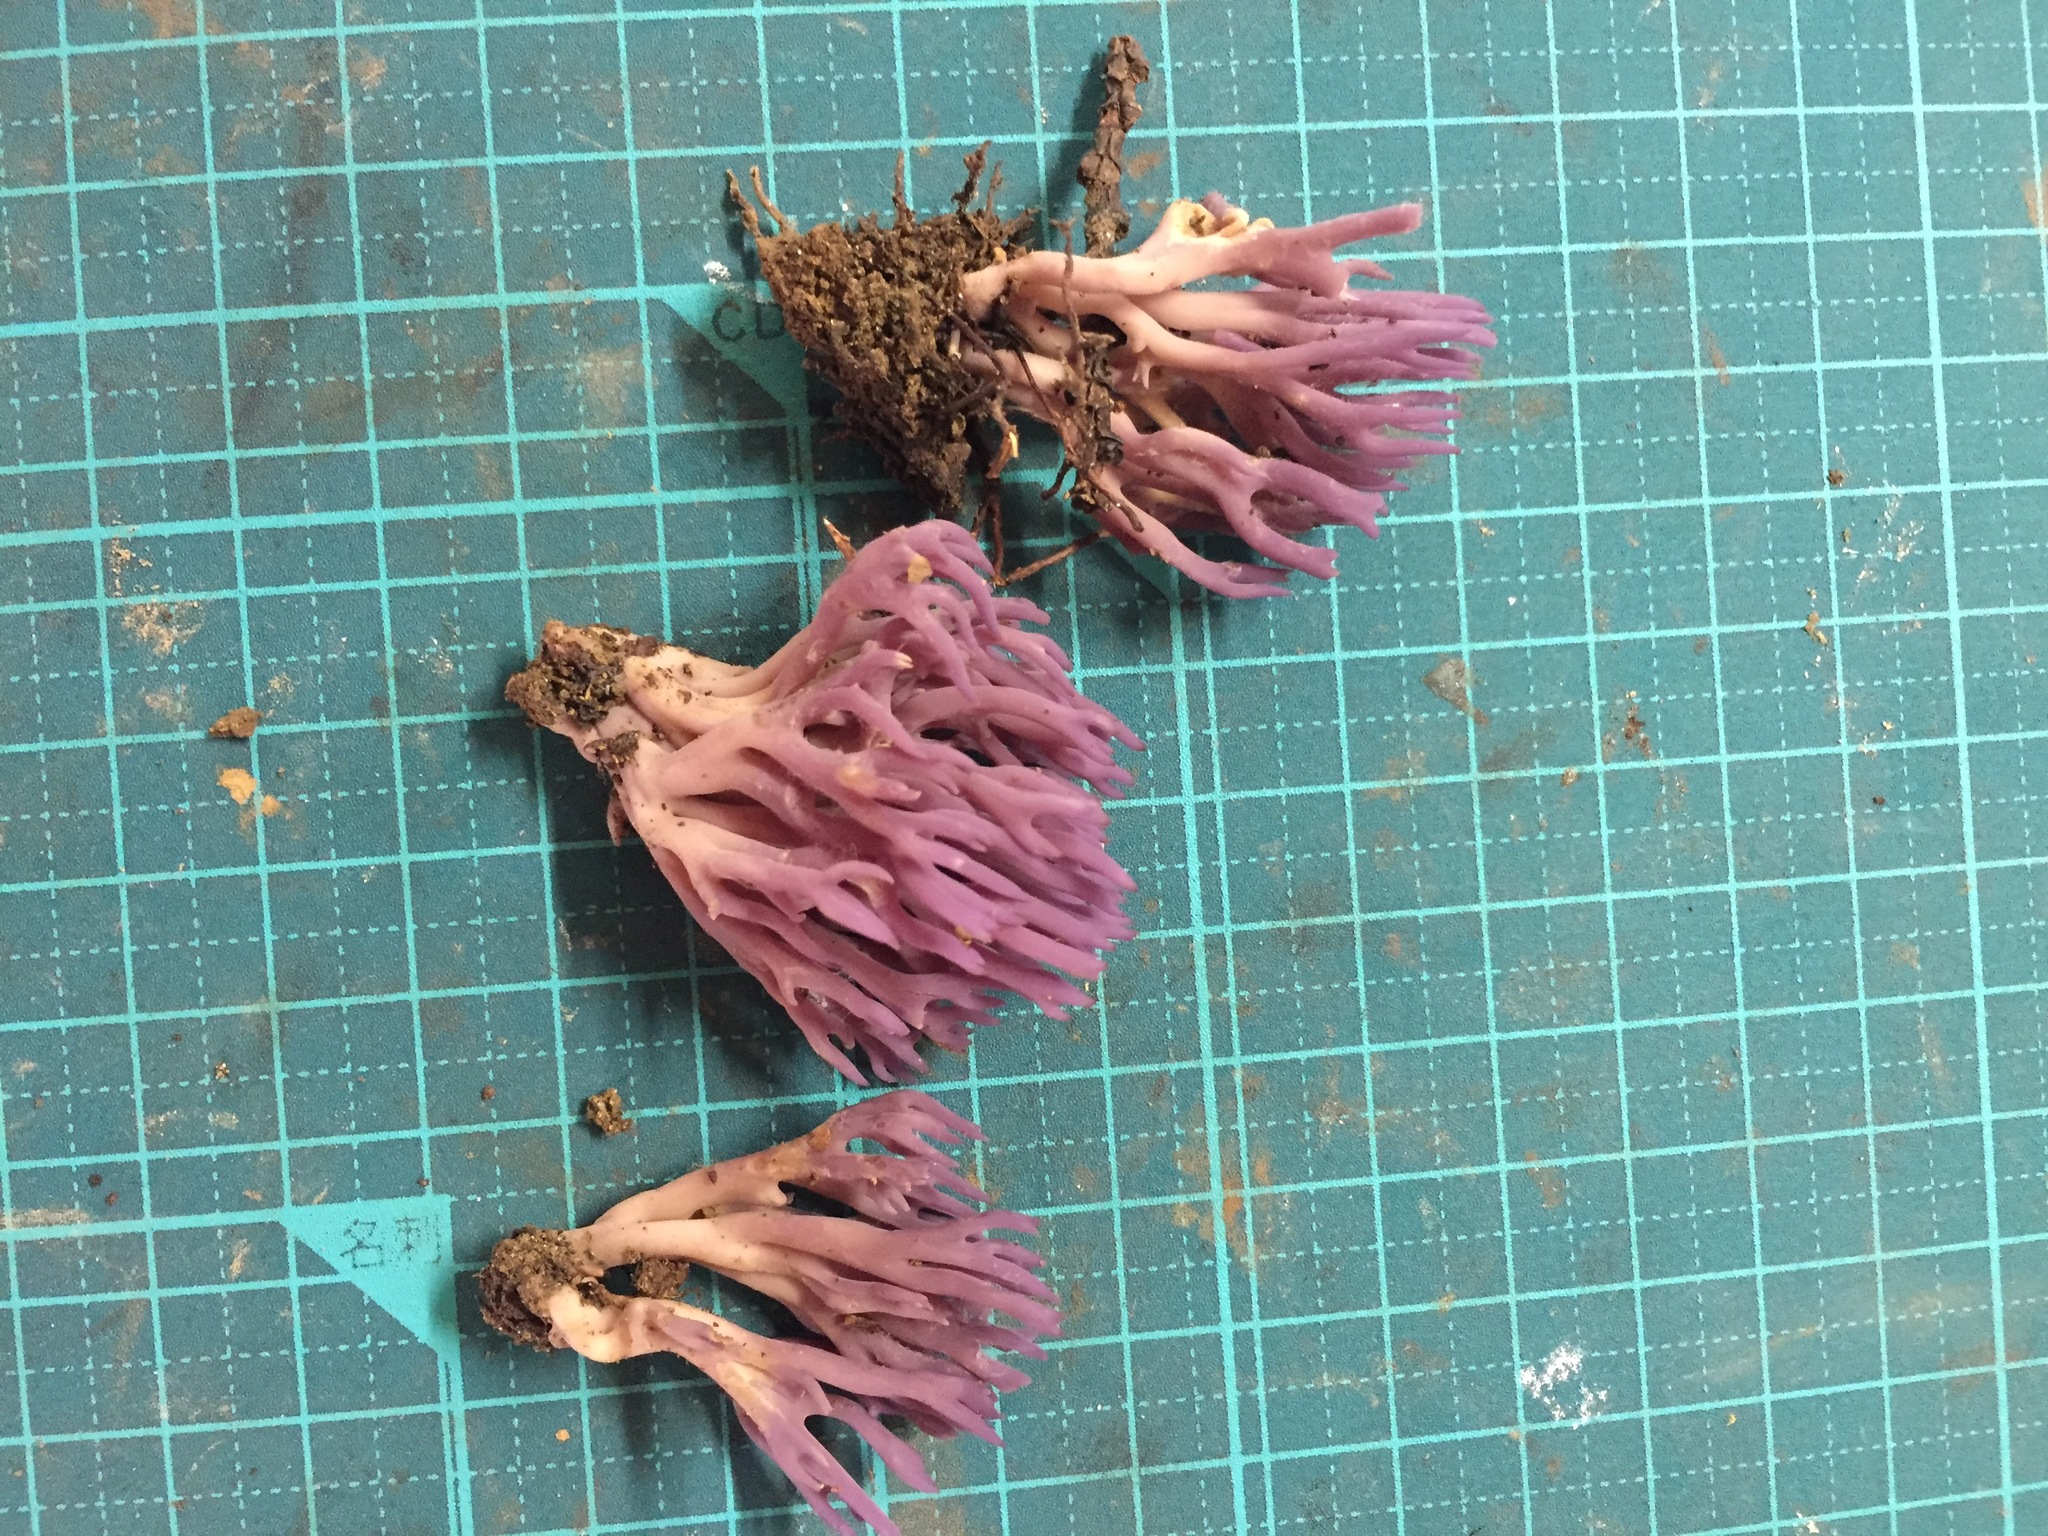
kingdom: Fungi
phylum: Basidiomycota
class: Agaricomycetes
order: Agaricales
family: Clavariaceae
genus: Clavaria
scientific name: Clavaria zollingeri
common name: Violet coral
